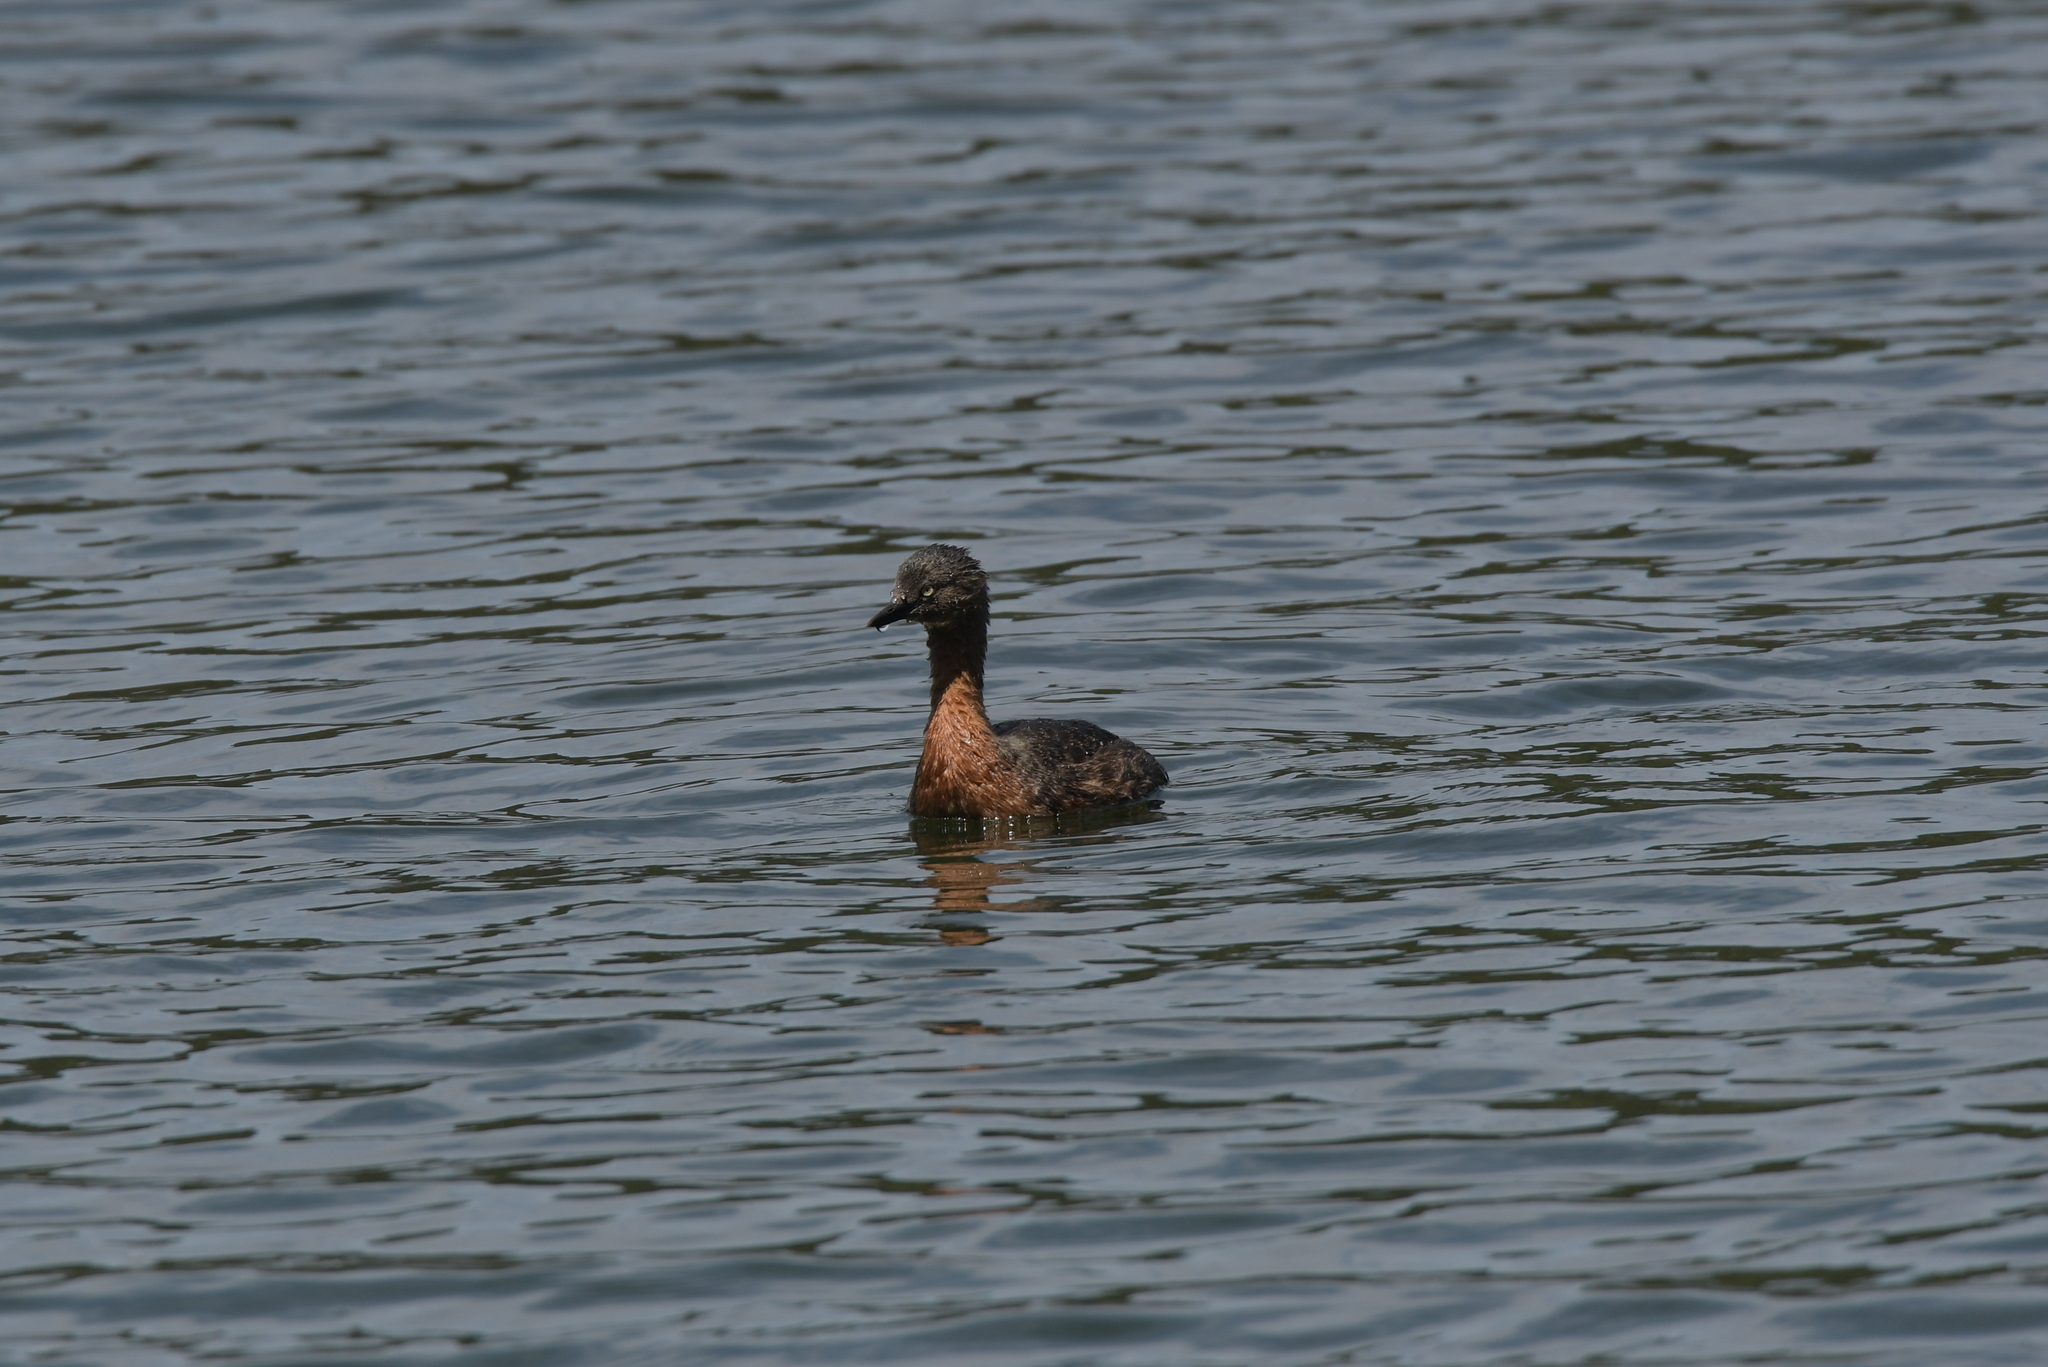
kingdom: Animalia
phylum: Chordata
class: Aves
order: Podicipediformes
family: Podicipedidae
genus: Poliocephalus
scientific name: Poliocephalus rufopectus
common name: New zealand grebe
